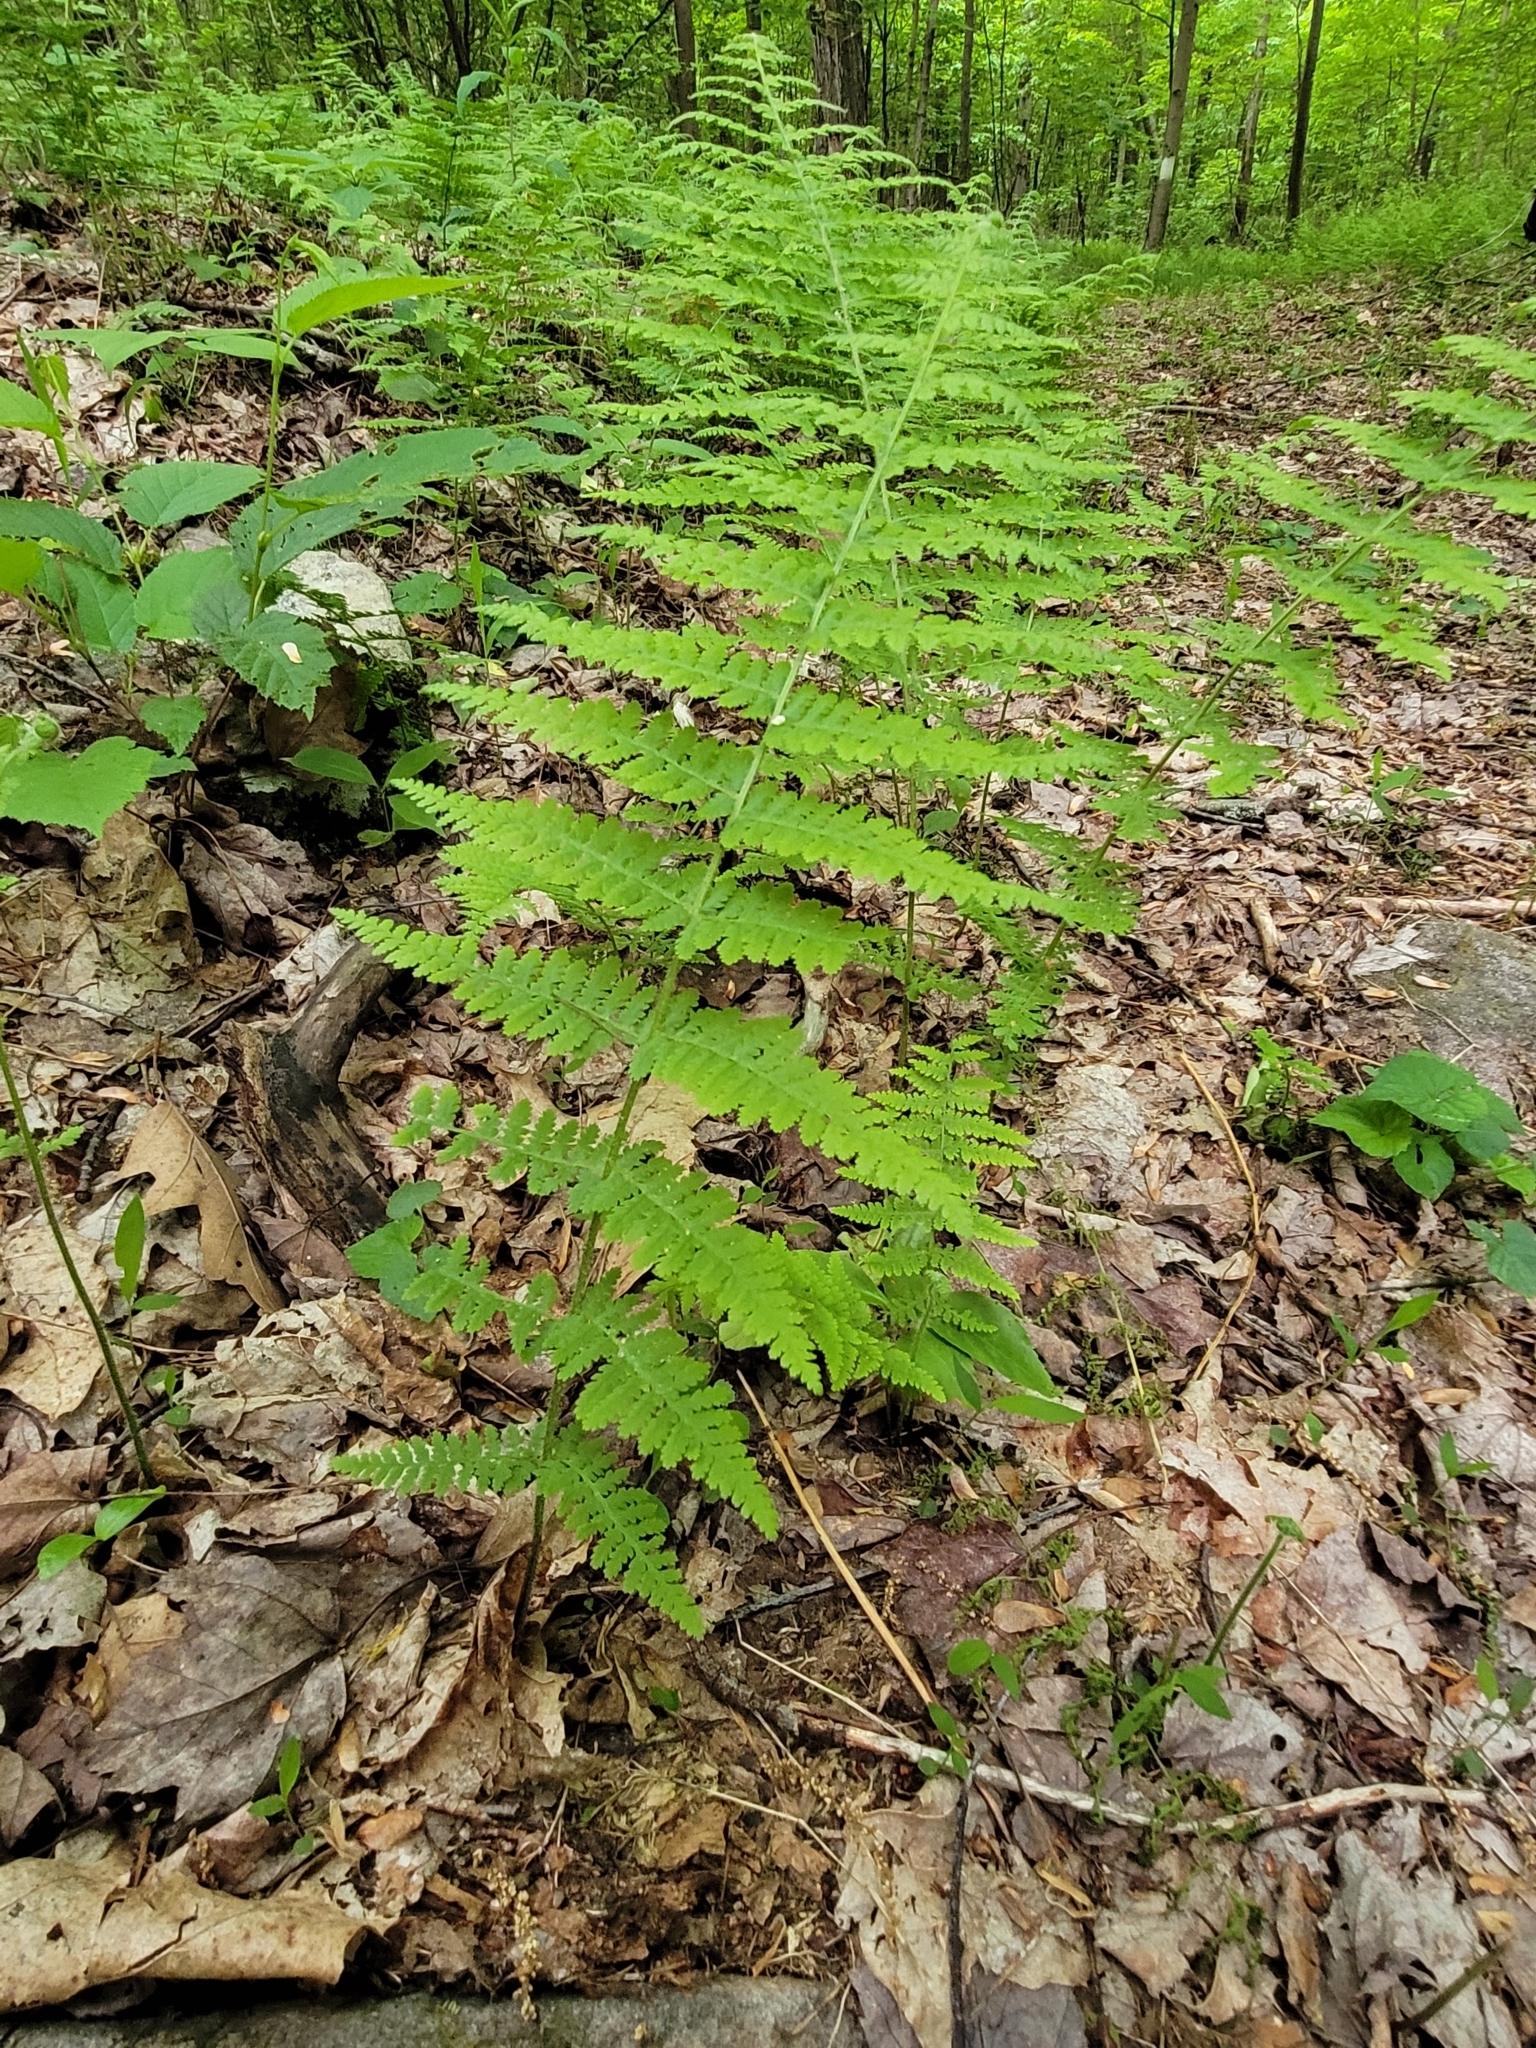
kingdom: Plantae
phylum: Tracheophyta
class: Polypodiopsida
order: Polypodiales
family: Dennstaedtiaceae
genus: Sitobolium
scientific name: Sitobolium punctilobum
